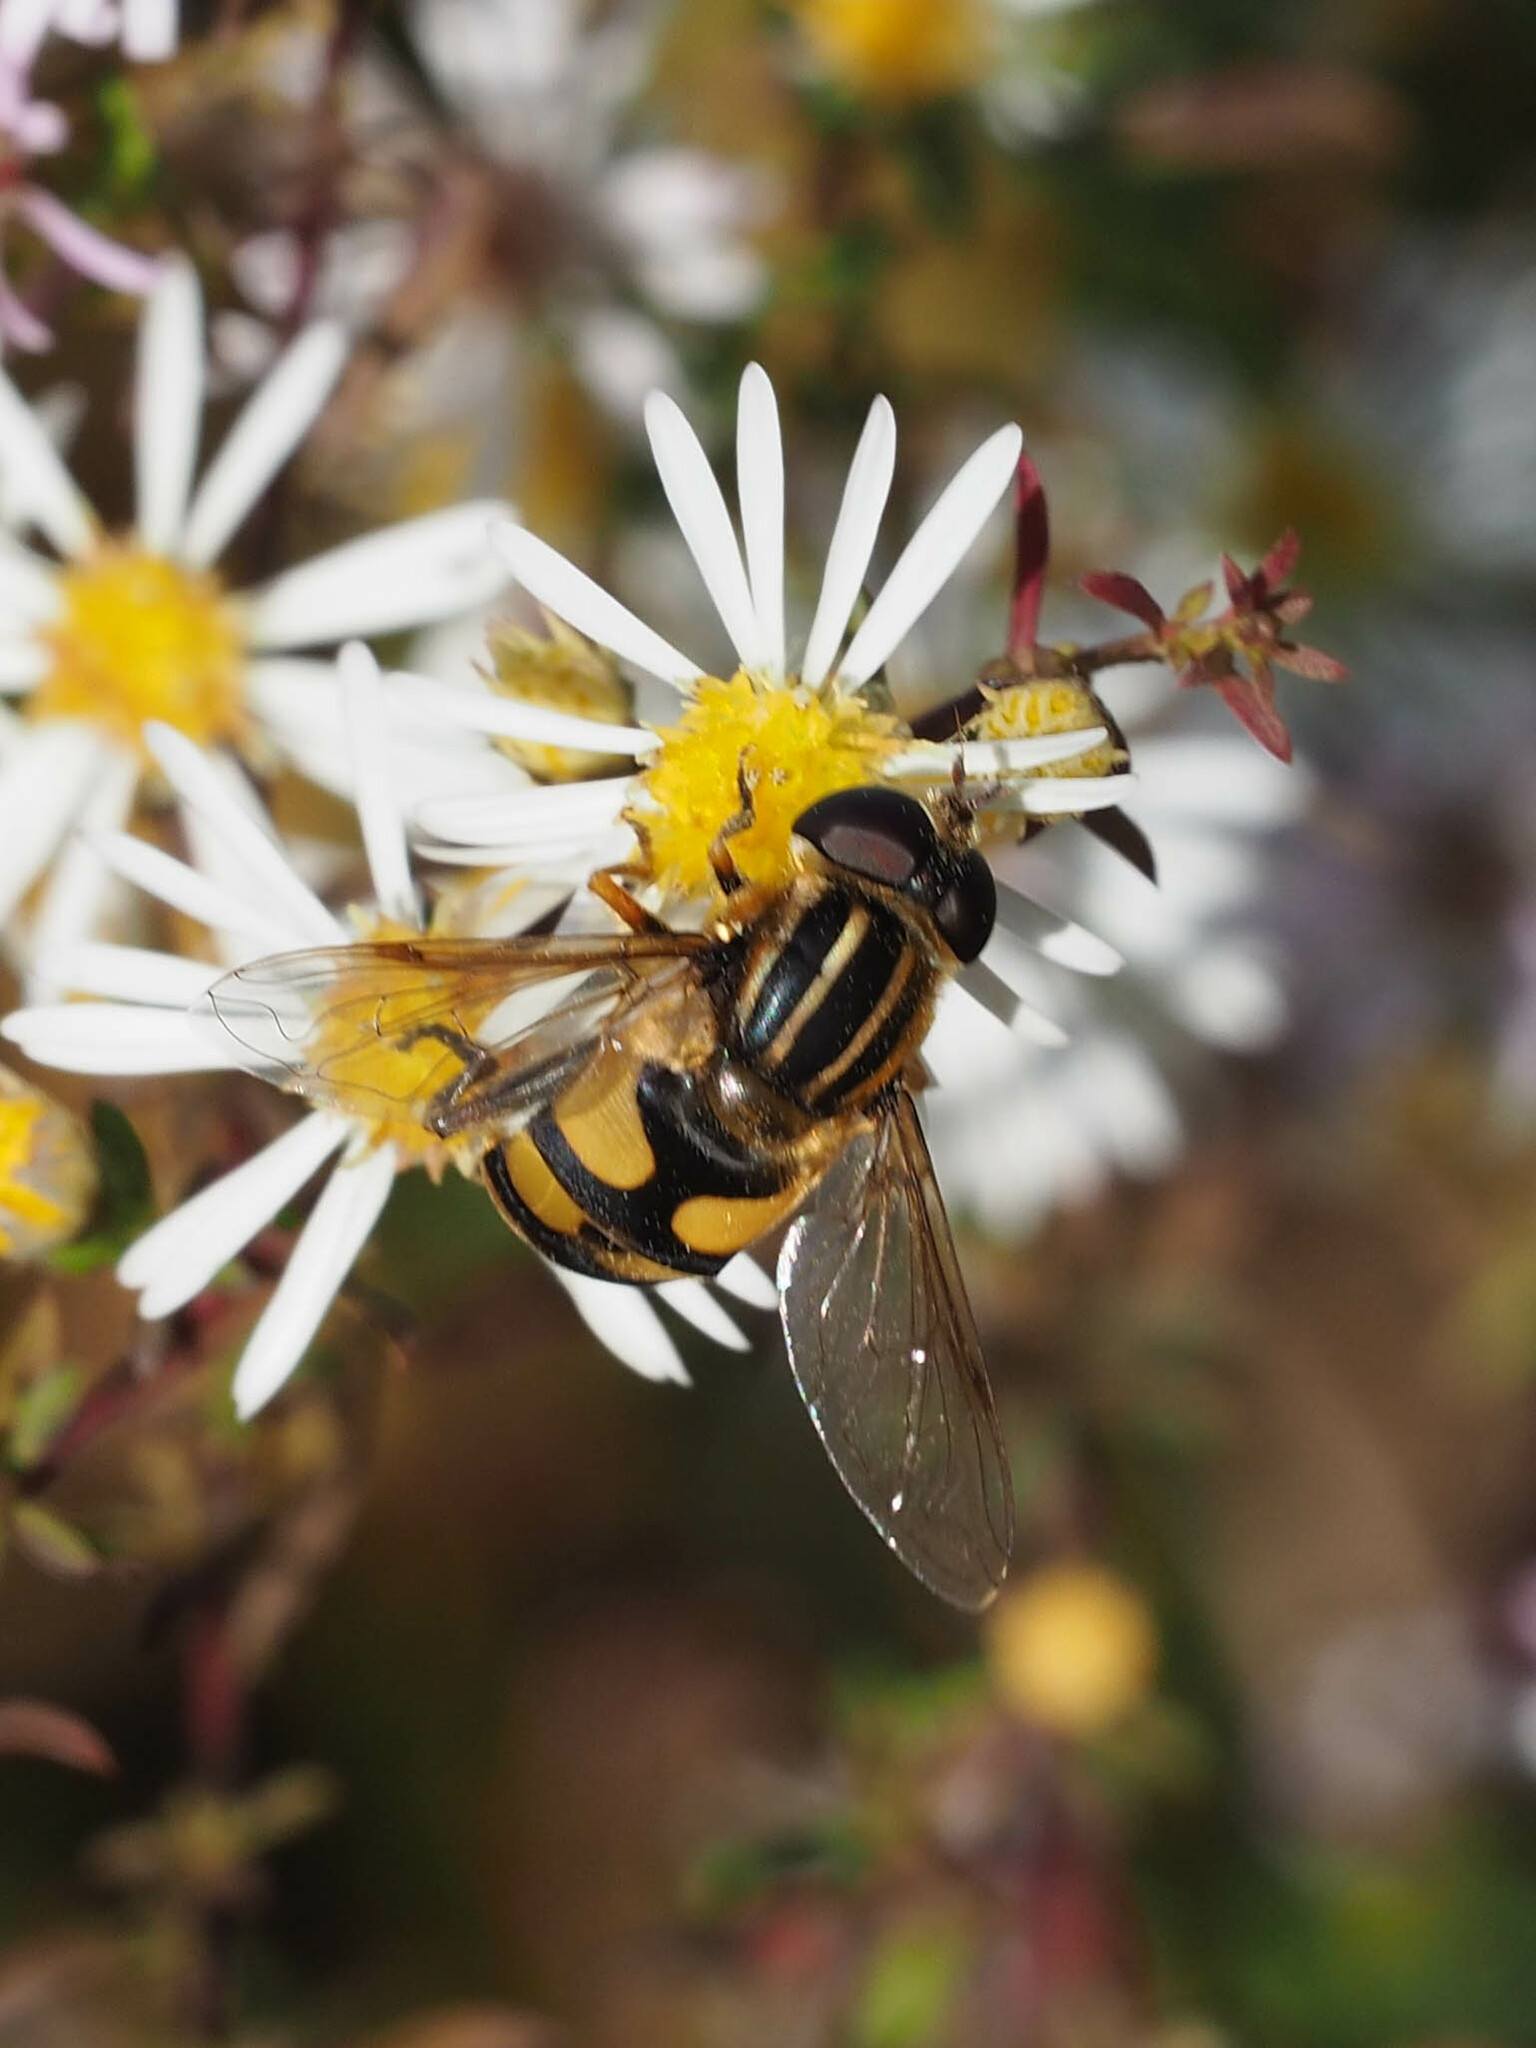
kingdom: Animalia
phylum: Arthropoda
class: Insecta
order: Diptera
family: Syrphidae
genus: Helophilus
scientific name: Helophilus fasciatus
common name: Narrow-headed marsh fly
